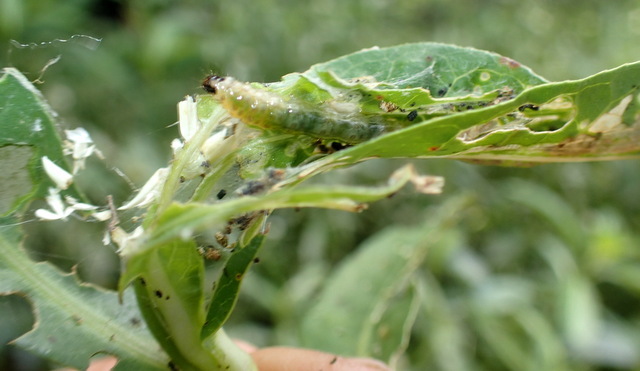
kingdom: Animalia
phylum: Arthropoda
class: Insecta
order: Lepidoptera
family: Crambidae
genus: Herpetogramma
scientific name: Herpetogramma bipunctalis
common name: Southern beet webworm
